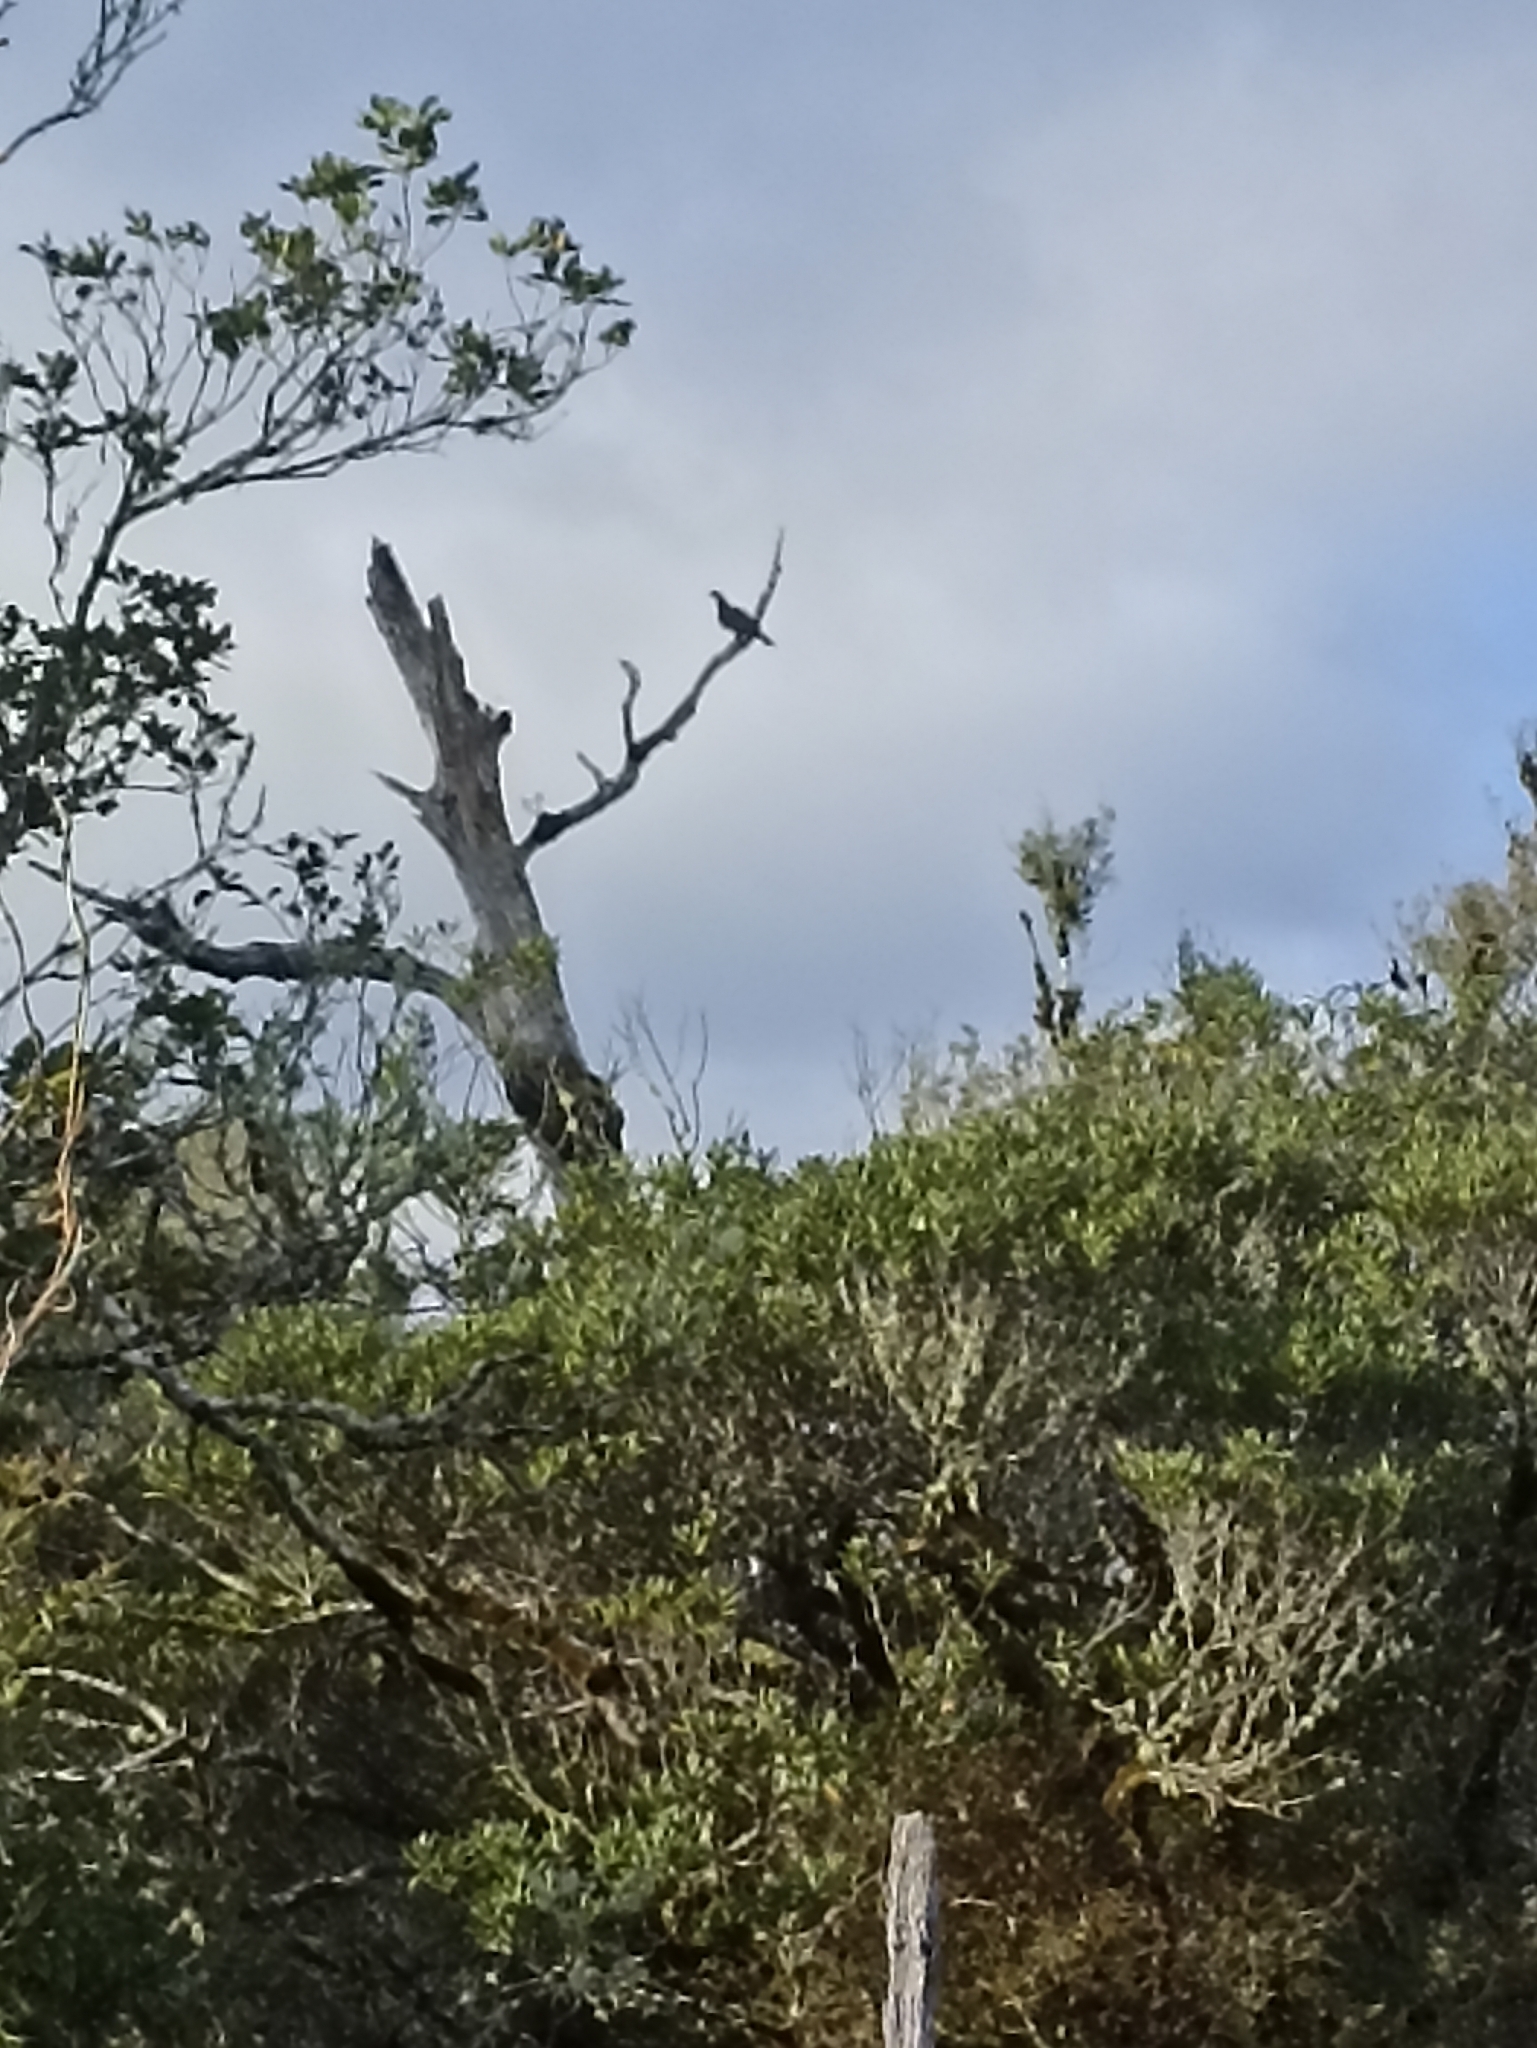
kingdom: Animalia
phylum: Chordata
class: Aves
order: Columbiformes
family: Columbidae
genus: Hemiphaga
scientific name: Hemiphaga novaeseelandiae
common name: New zealand pigeon
